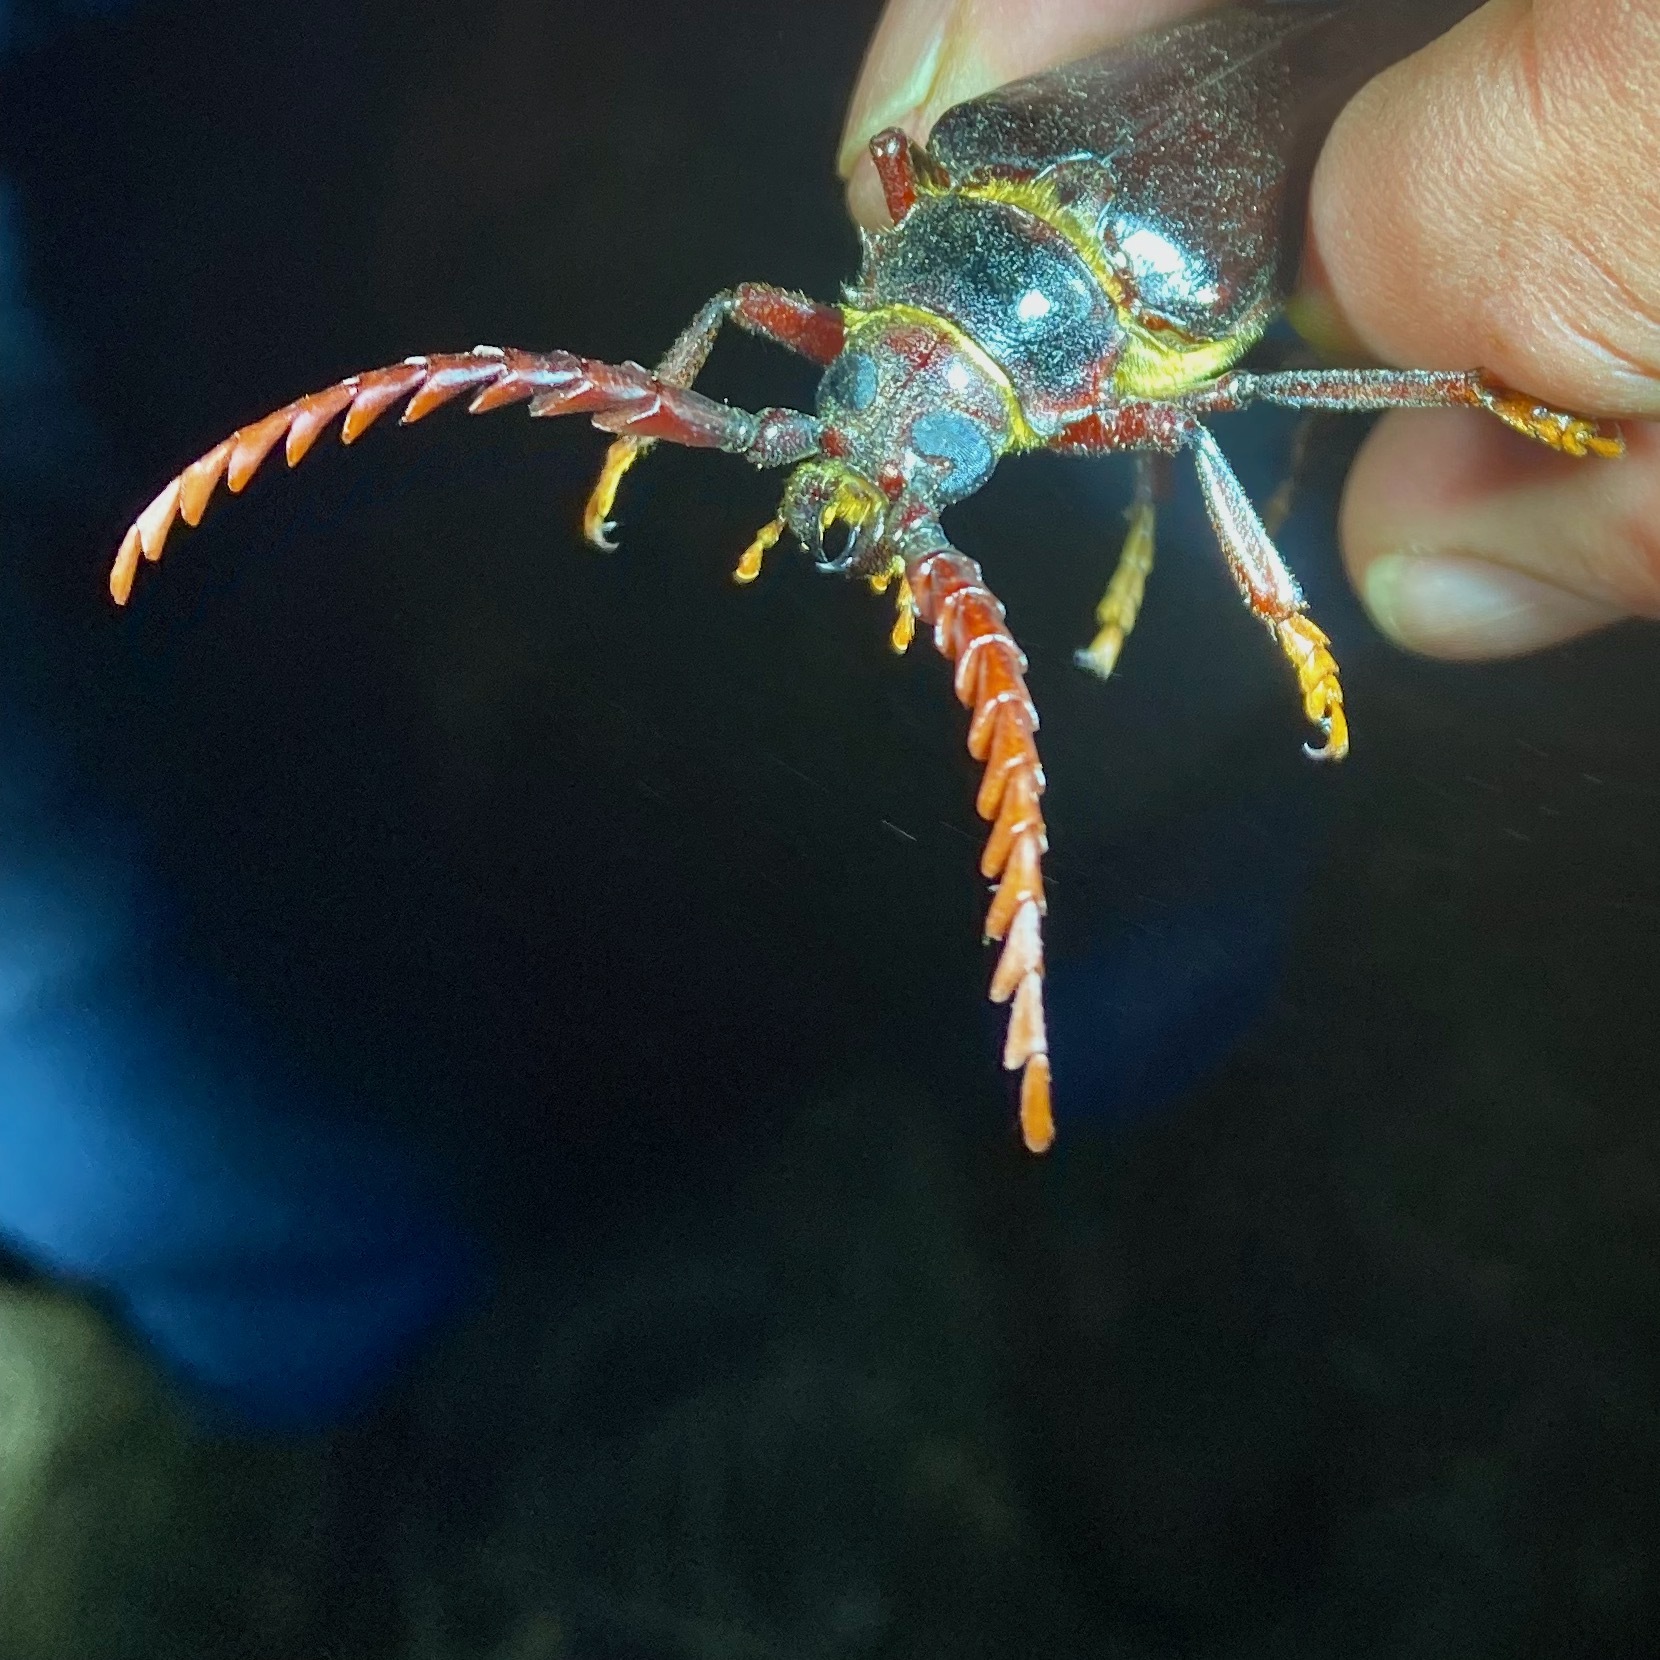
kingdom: Animalia
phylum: Arthropoda
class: Insecta
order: Coleoptera
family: Cerambycidae
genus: Prionus
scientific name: Prionus californicus
